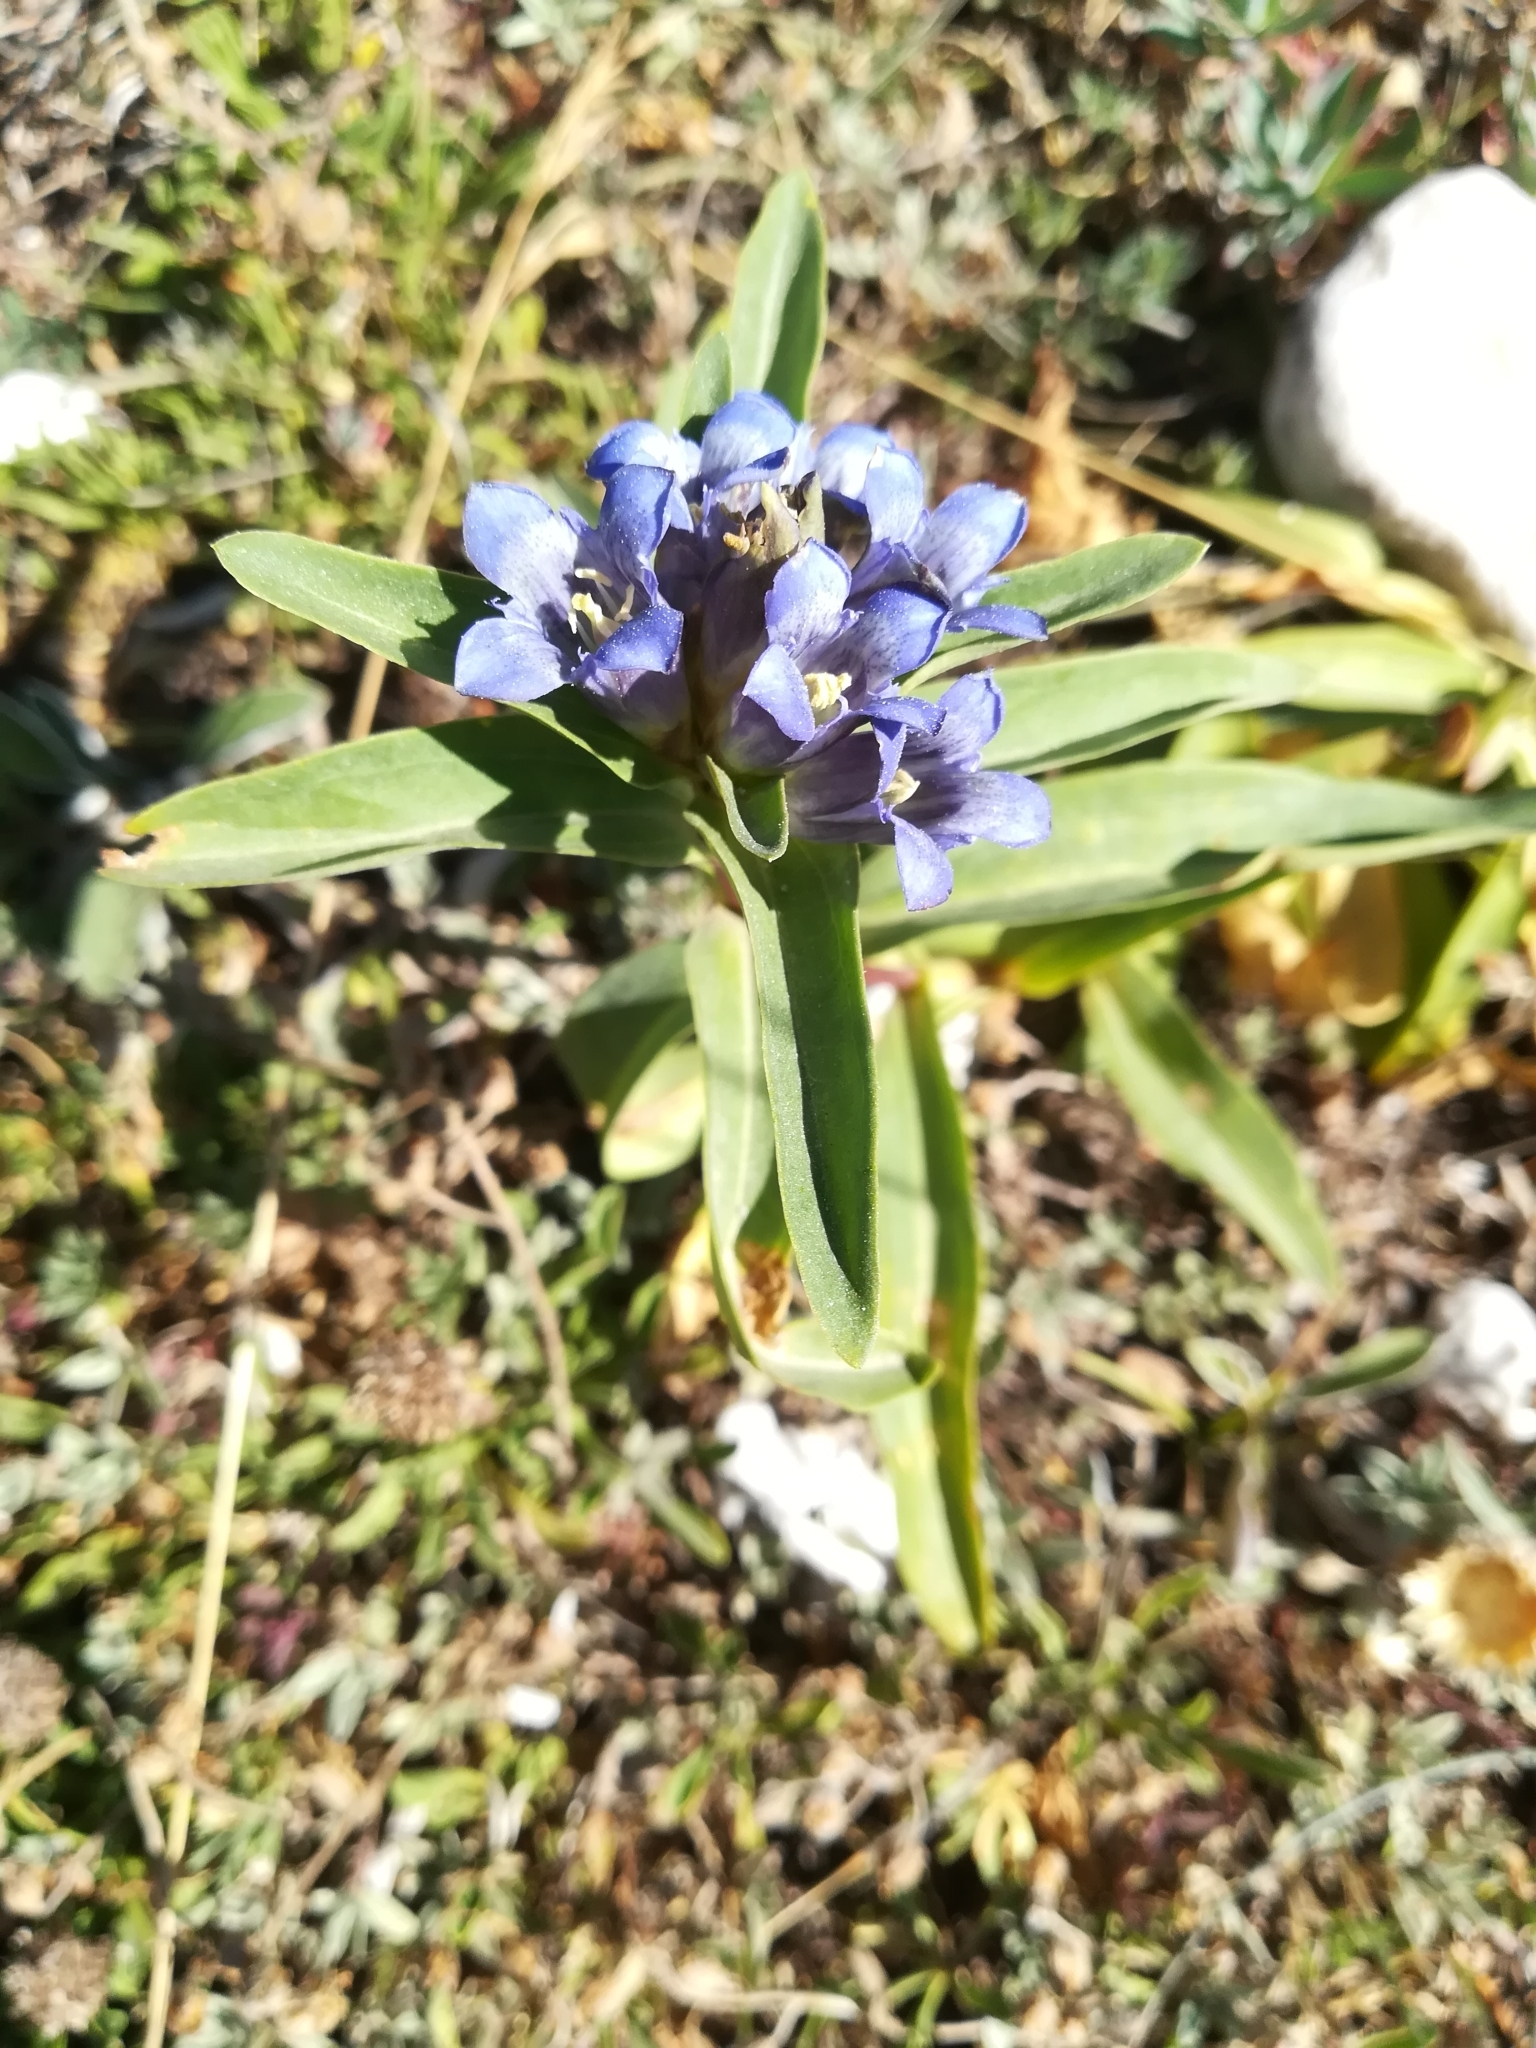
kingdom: Plantae
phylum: Tracheophyta
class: Magnoliopsida
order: Gentianales
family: Gentianaceae
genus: Gentiana
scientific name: Gentiana cruciata
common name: Cross gentian
